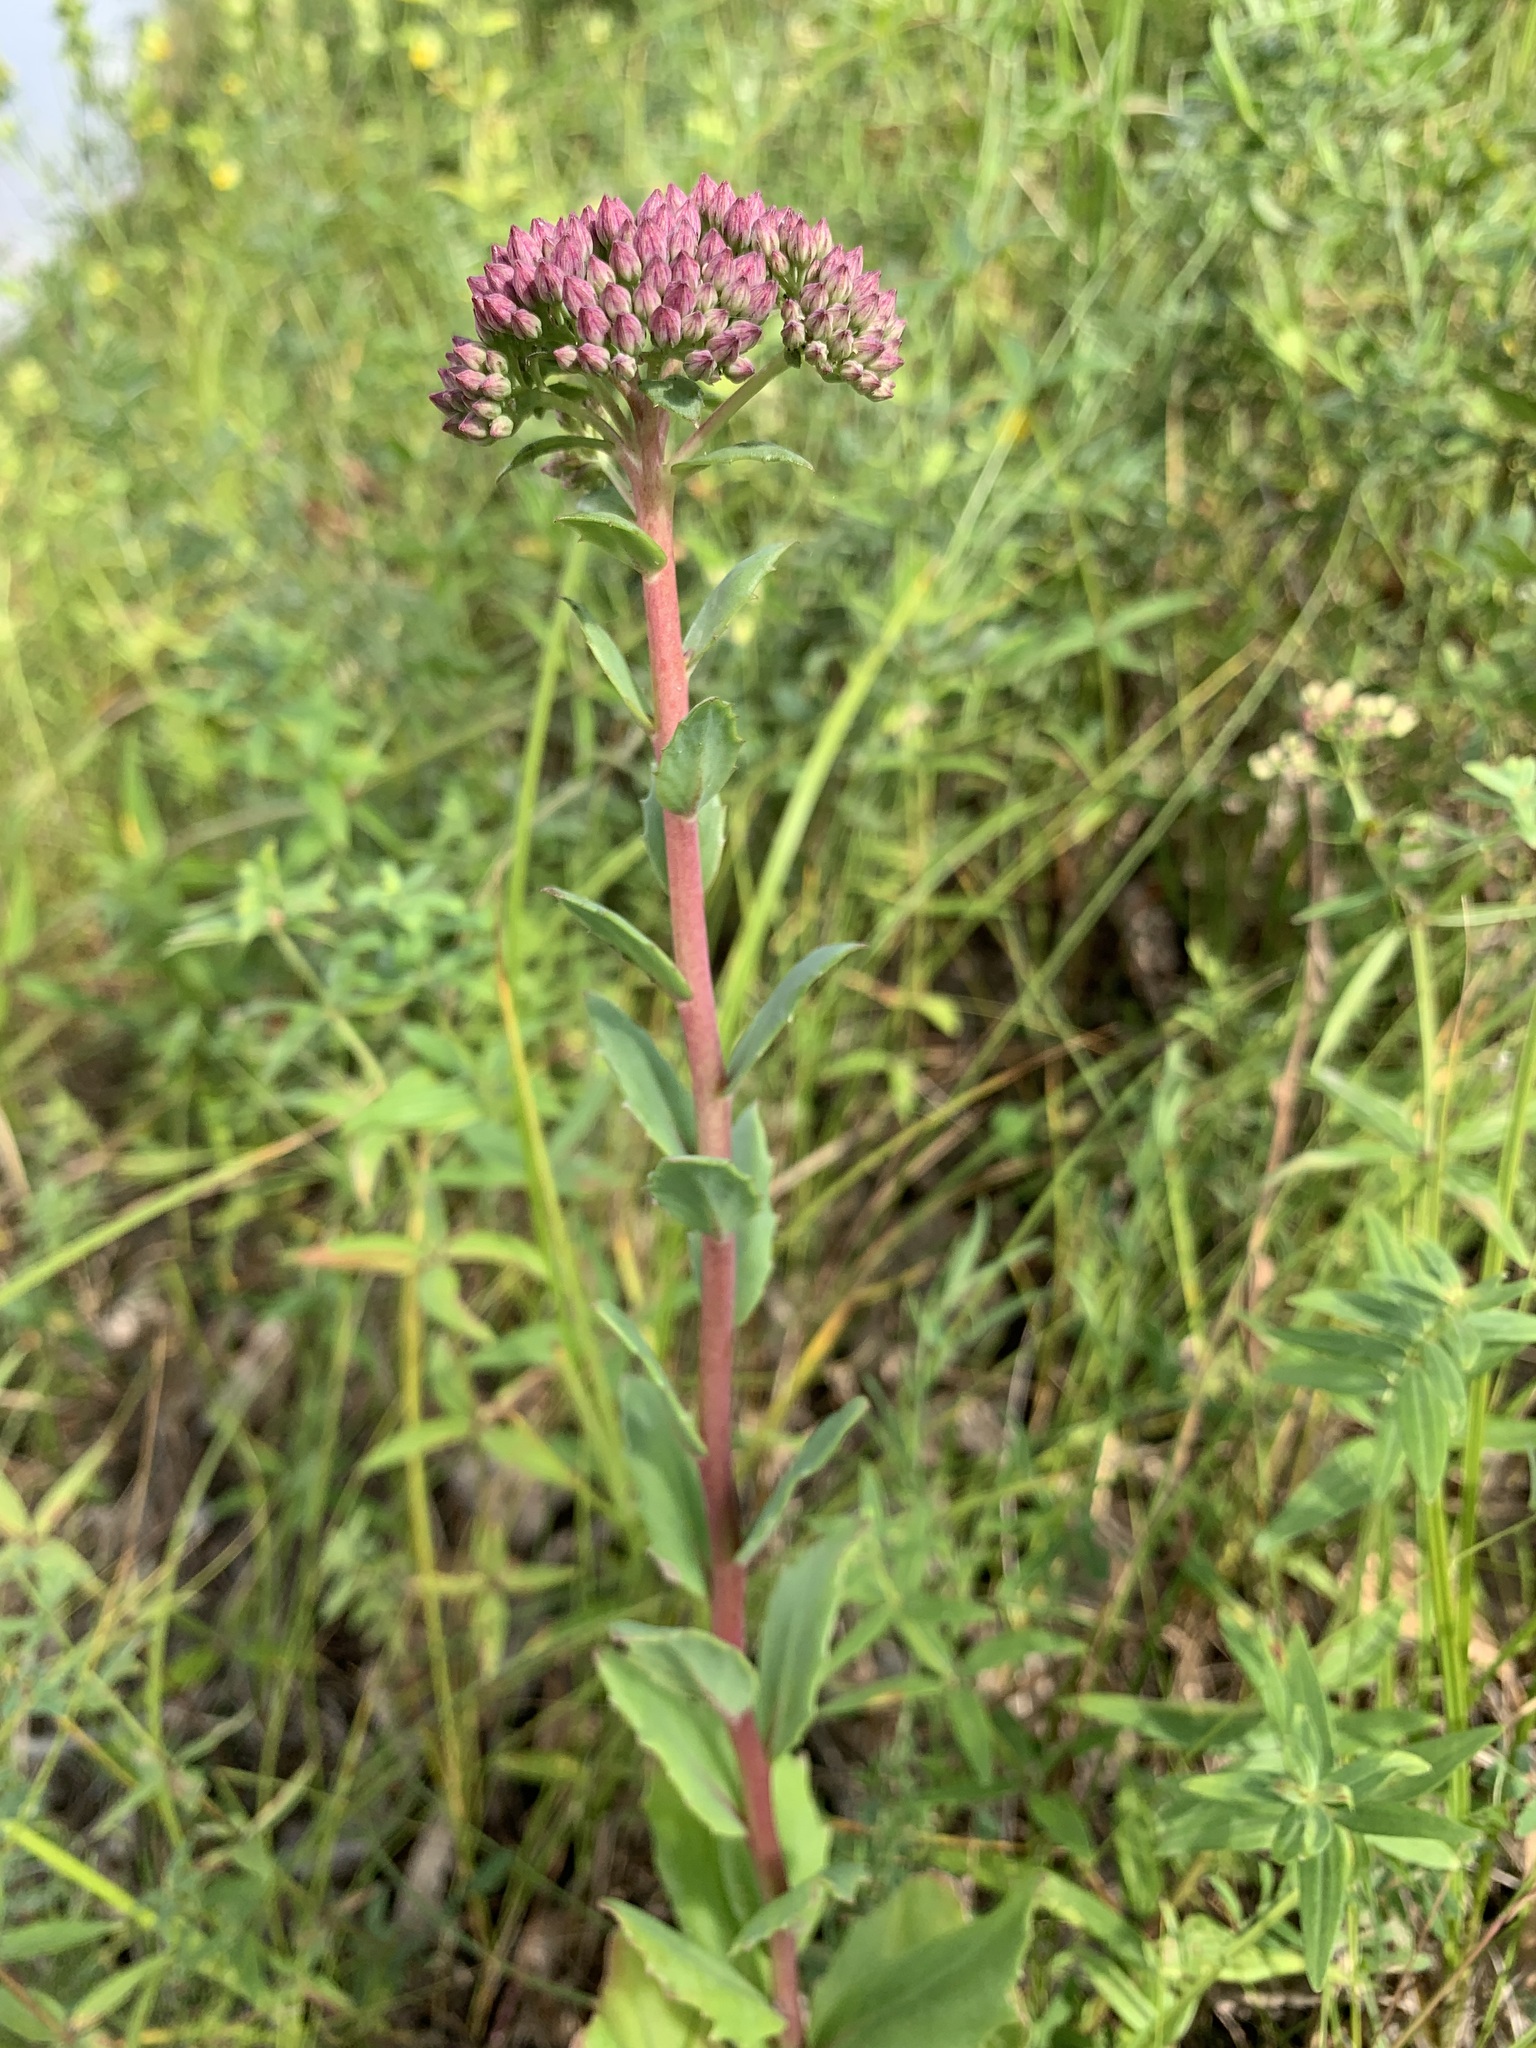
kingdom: Plantae
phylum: Tracheophyta
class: Magnoliopsida
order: Saxifragales
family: Crassulaceae
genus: Hylotelephium
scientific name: Hylotelephium telephium
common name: Live-forever
